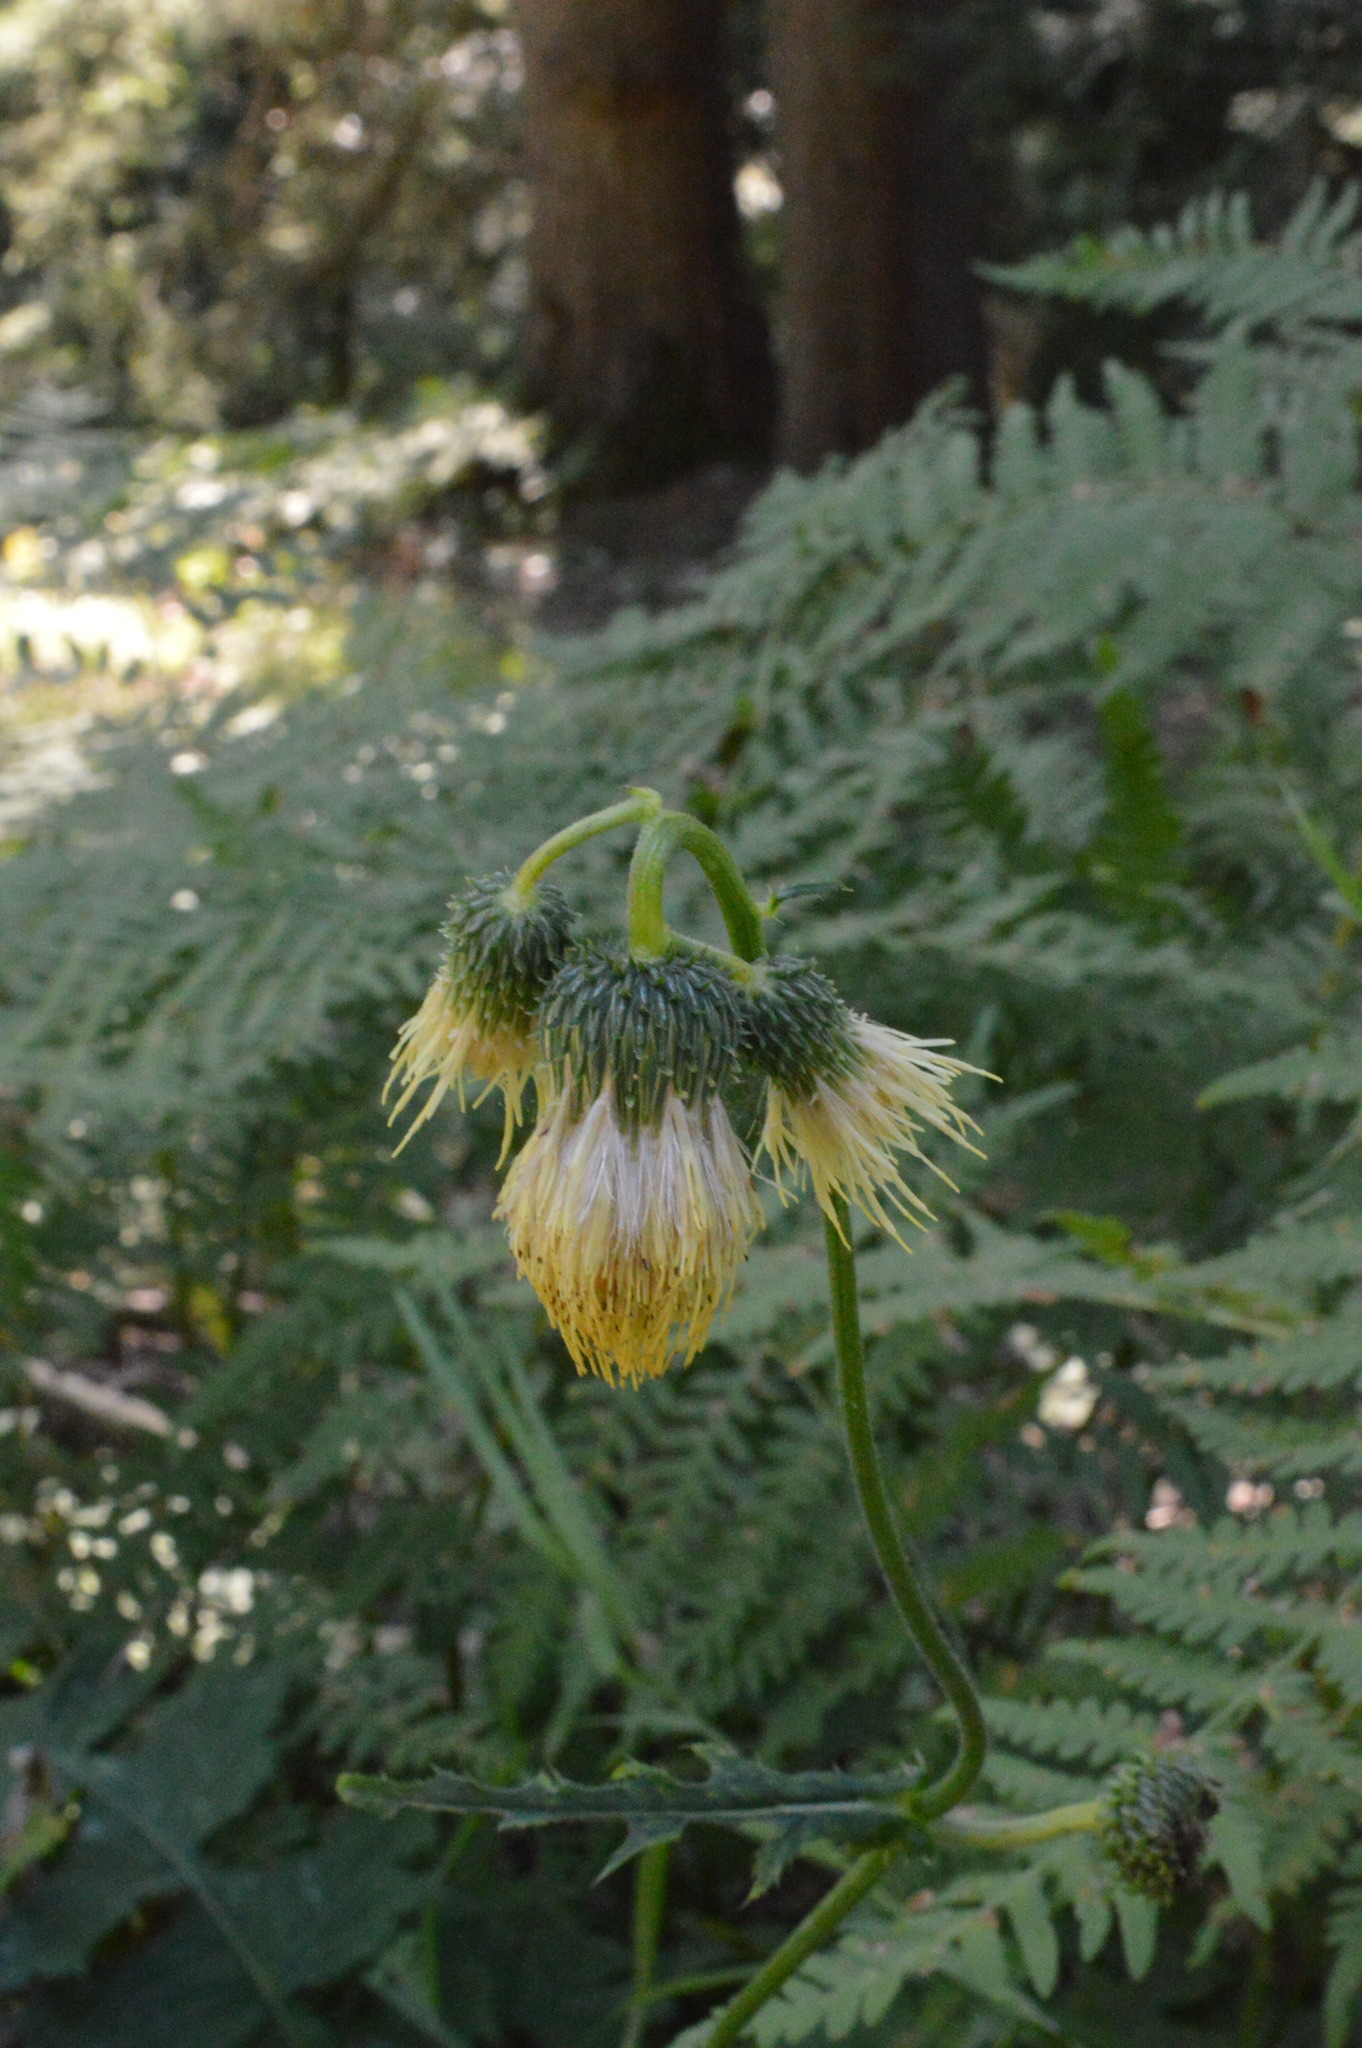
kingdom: Plantae
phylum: Tracheophyta
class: Magnoliopsida
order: Asterales
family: Asteraceae
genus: Cirsium
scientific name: Cirsium erisithales
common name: Yellow thistle
